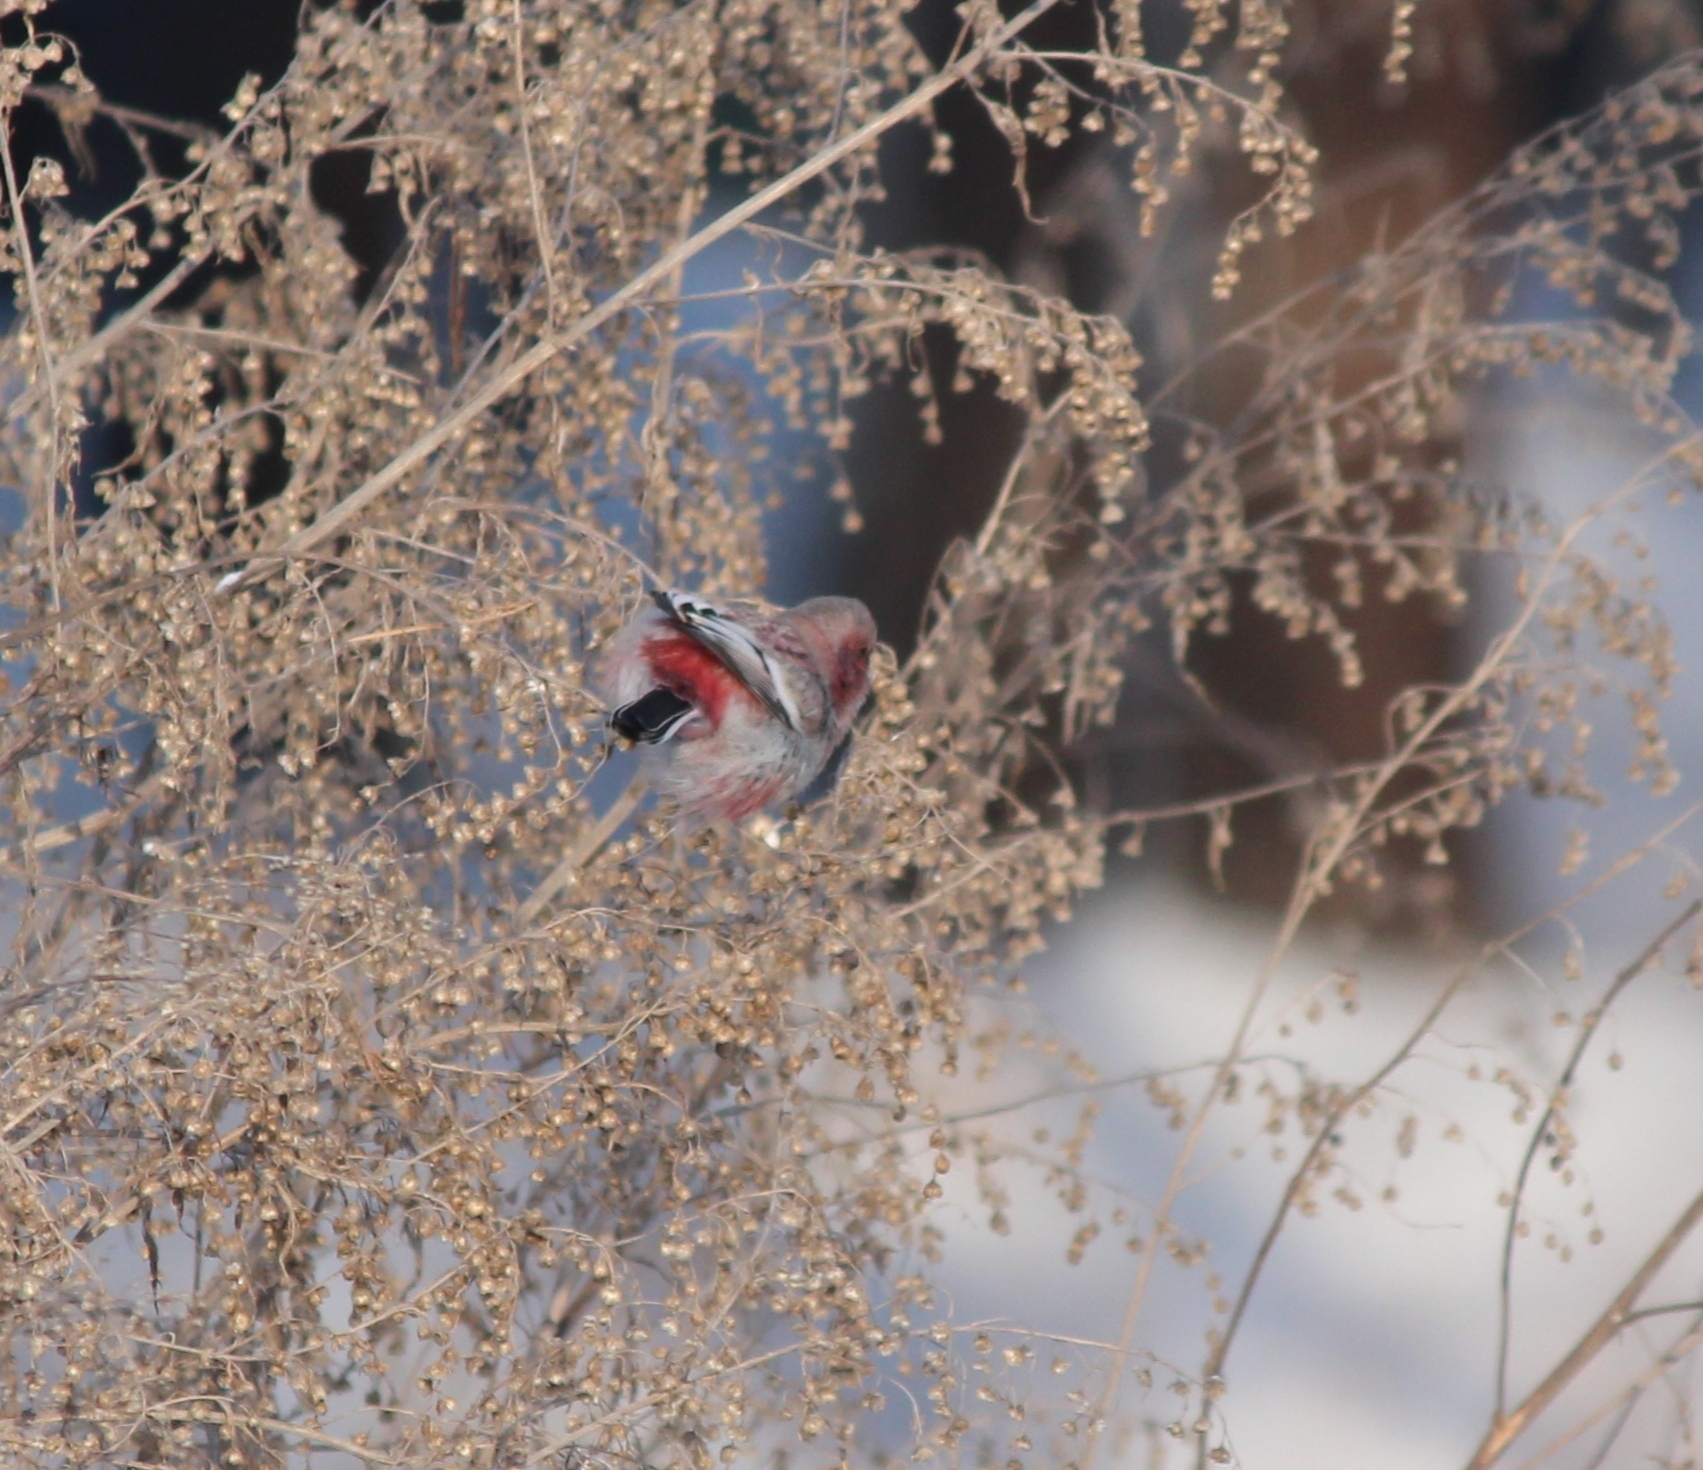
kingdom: Animalia
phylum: Chordata
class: Aves
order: Passeriformes
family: Fringillidae
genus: Carpodacus
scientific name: Carpodacus sibiricus
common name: Long-tailed rosefinch
